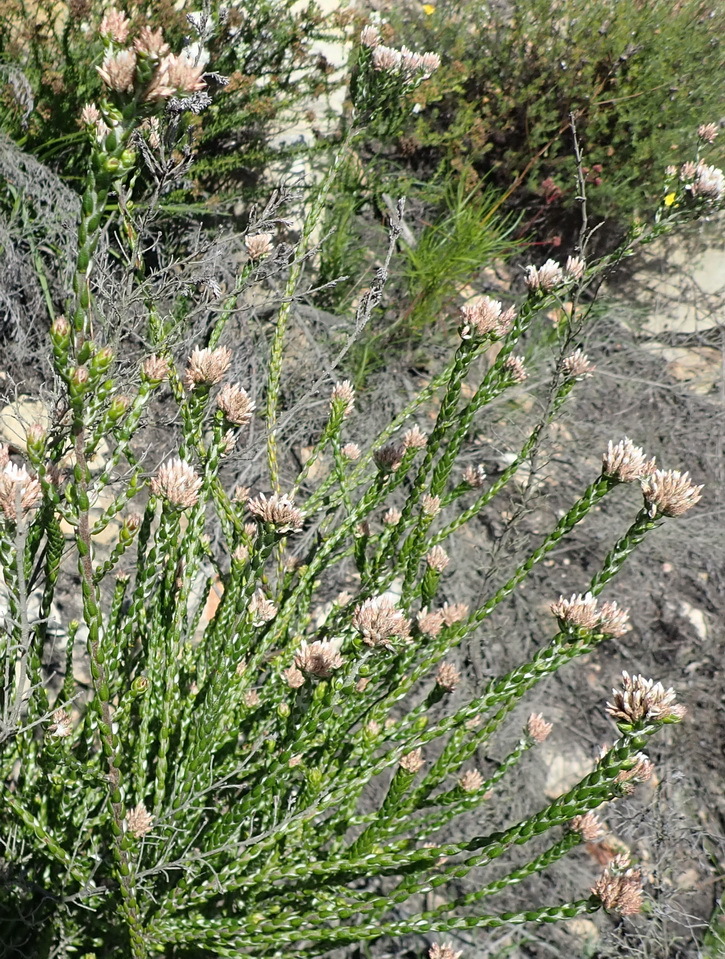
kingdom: Plantae
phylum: Tracheophyta
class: Magnoliopsida
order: Asterales
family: Asteraceae
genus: Metalasia
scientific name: Metalasia pulcherrima
